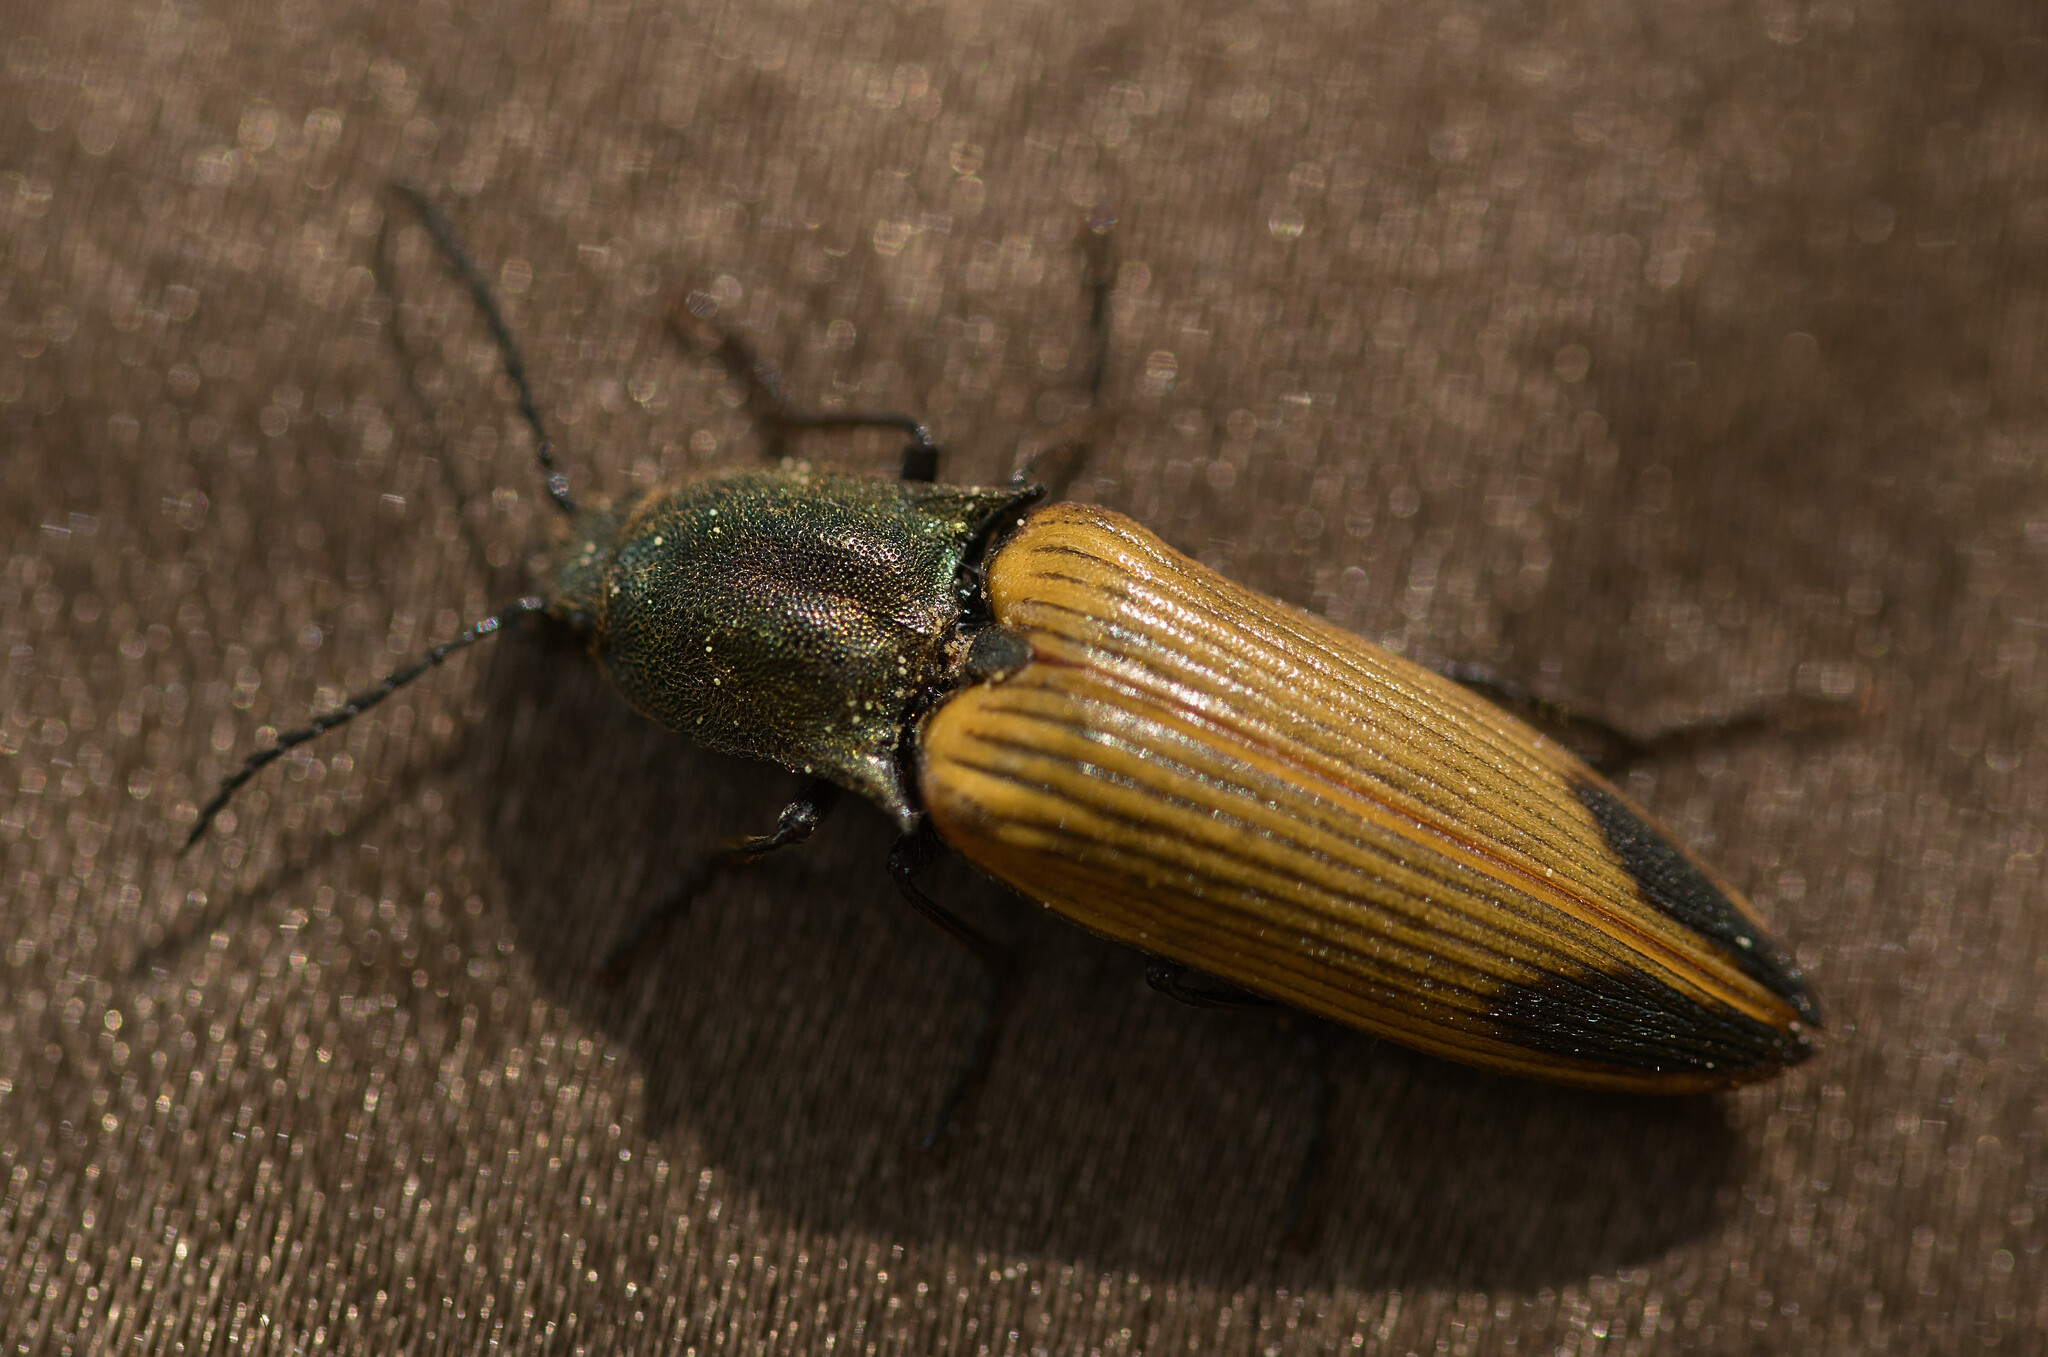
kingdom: Animalia
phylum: Arthropoda
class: Insecta
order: Coleoptera
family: Elateridae
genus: Ctenicera
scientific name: Ctenicera virens
